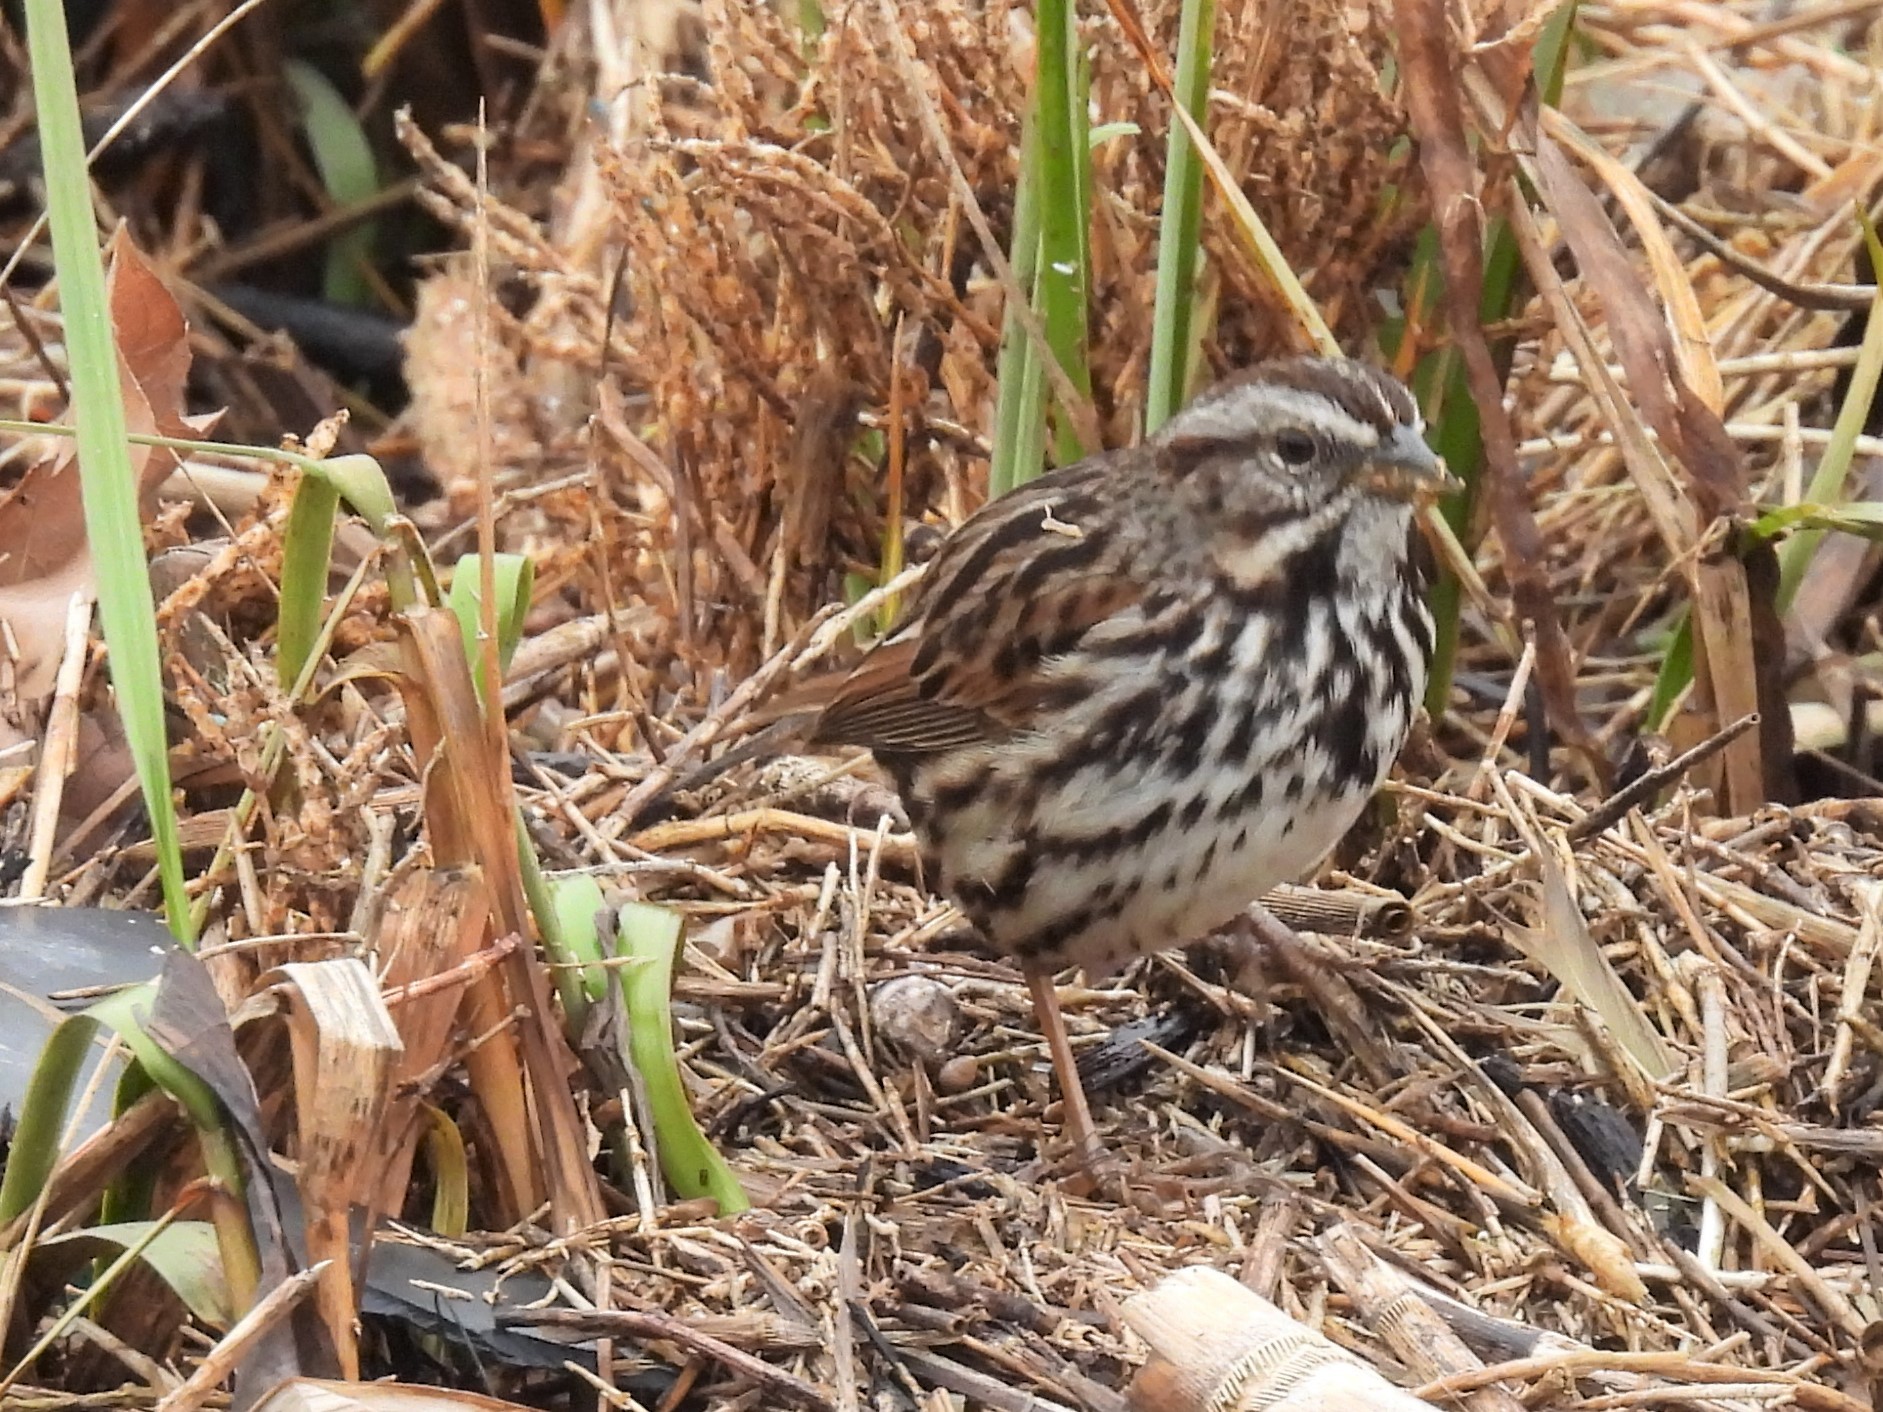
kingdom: Animalia
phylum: Chordata
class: Aves
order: Passeriformes
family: Passerellidae
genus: Melospiza
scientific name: Melospiza melodia
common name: Song sparrow
